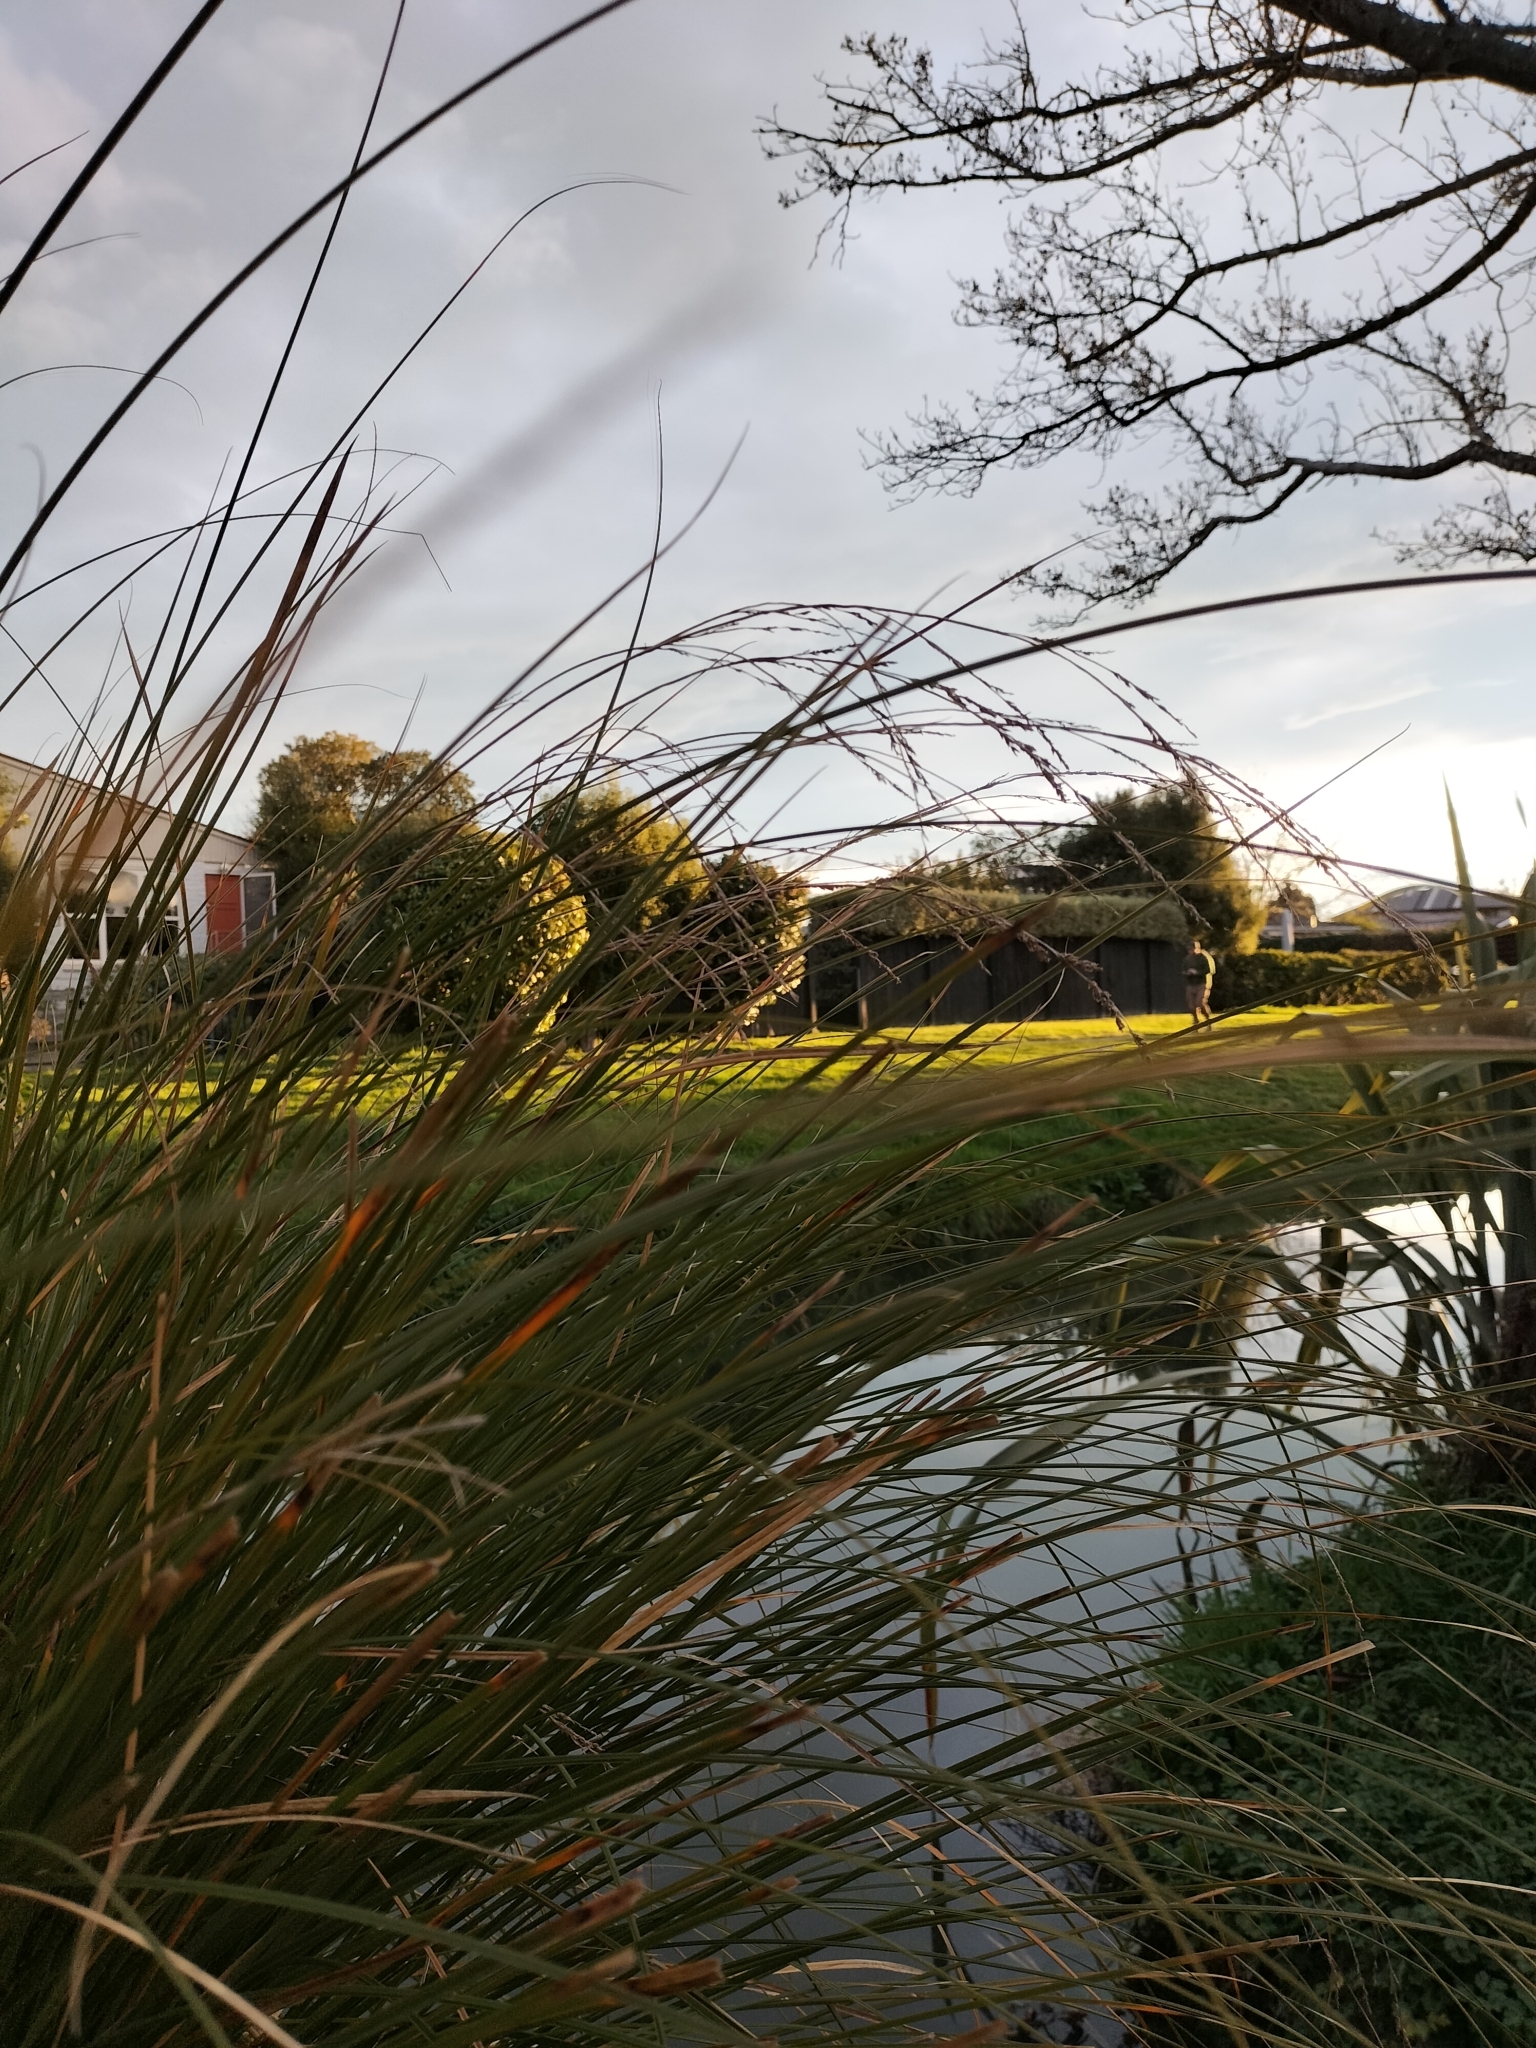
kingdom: Plantae
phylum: Tracheophyta
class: Liliopsida
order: Poales
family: Cyperaceae
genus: Carex
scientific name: Carex secta
